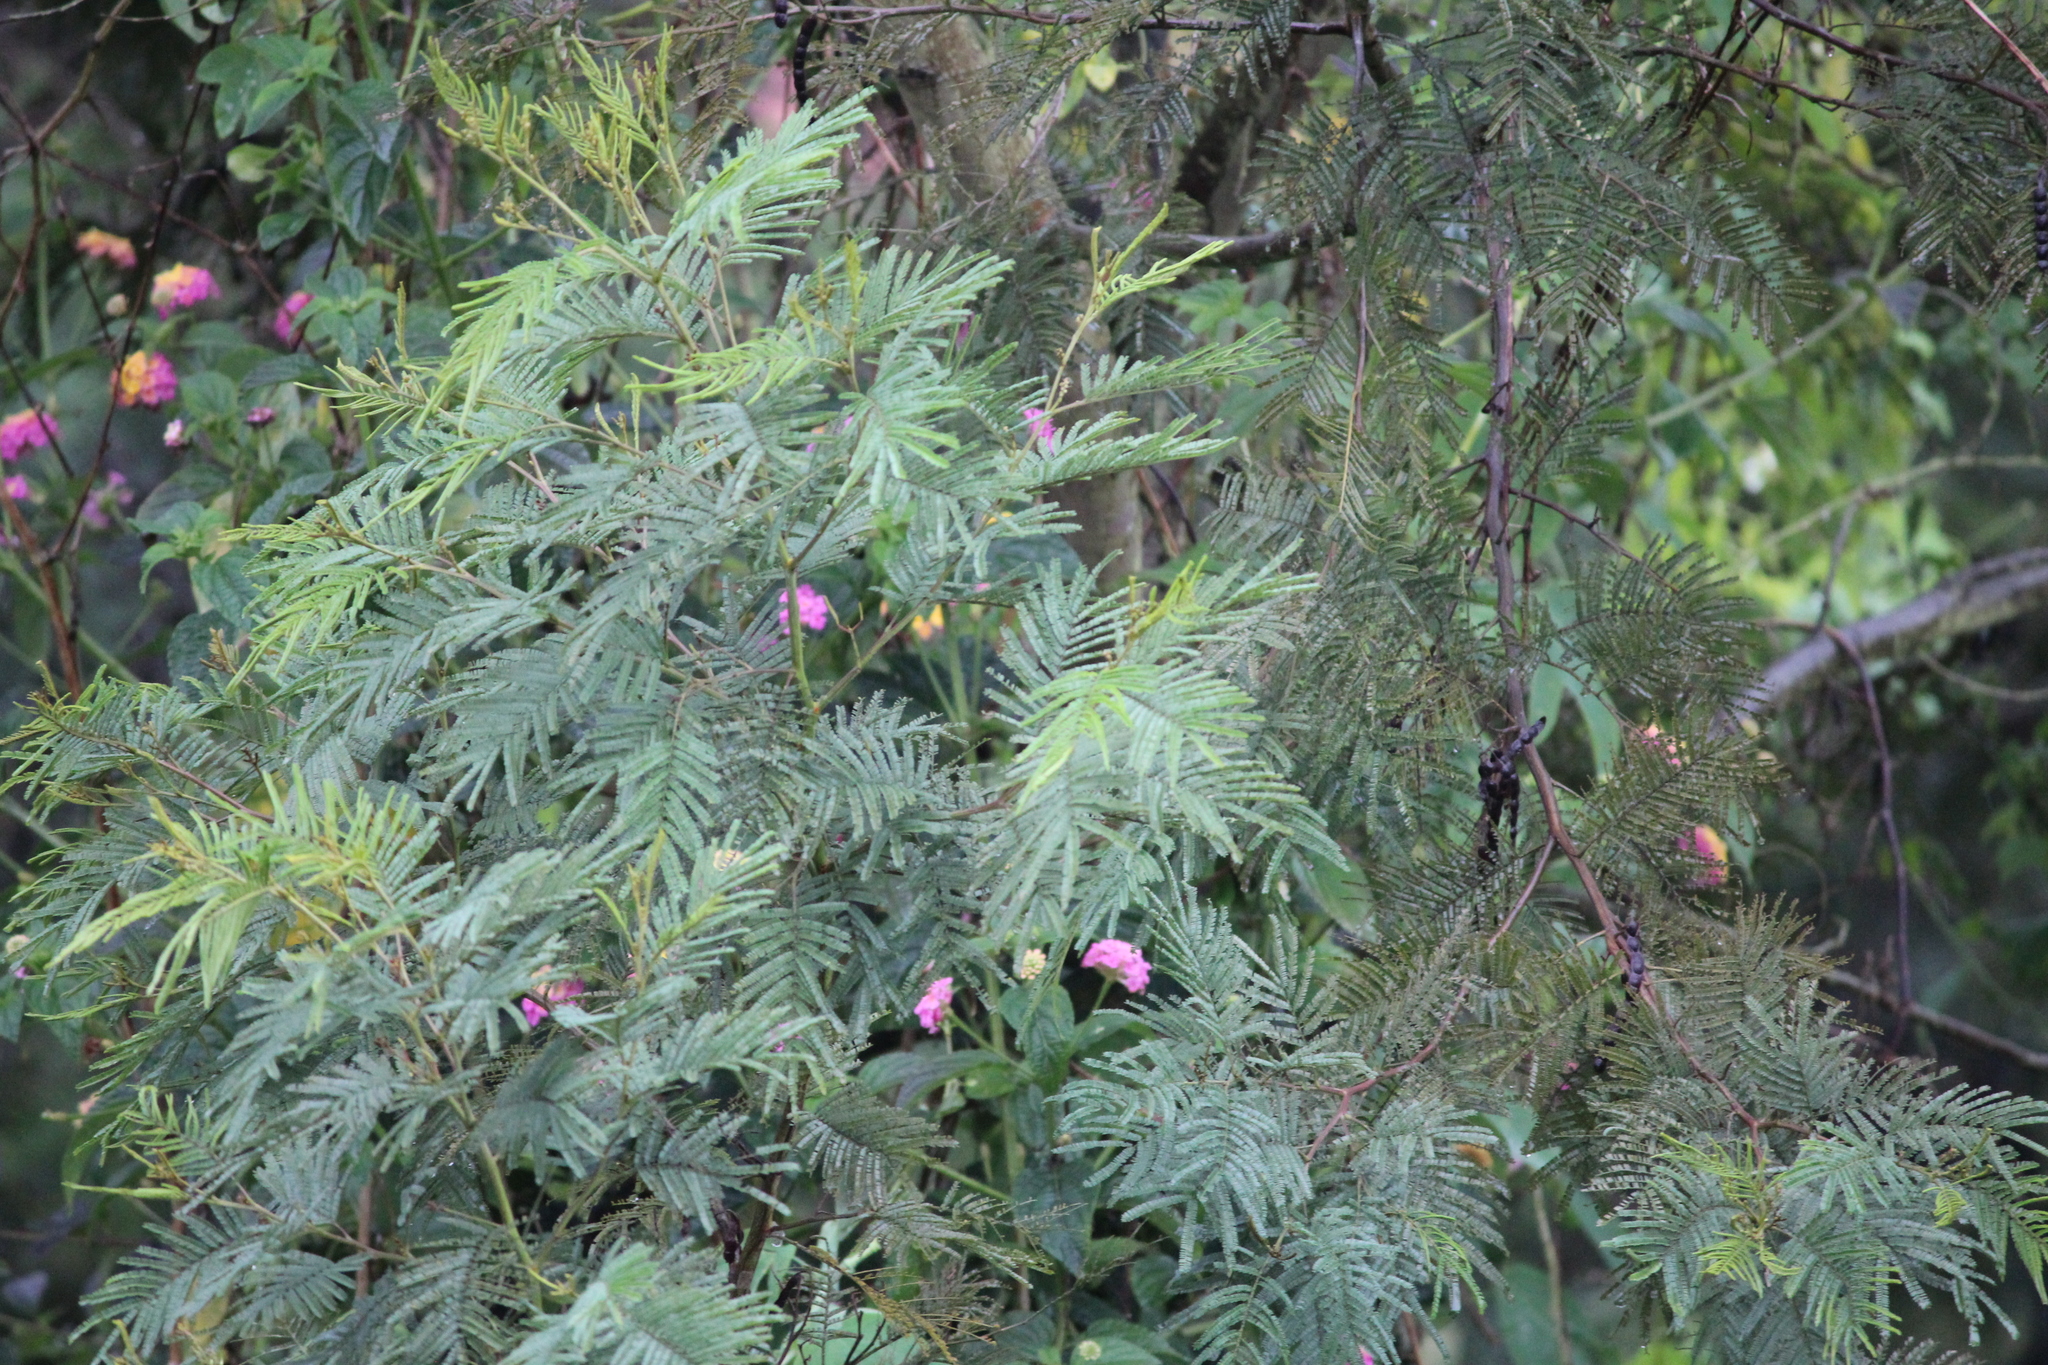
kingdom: Plantae
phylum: Tracheophyta
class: Magnoliopsida
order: Fabales
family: Fabaceae
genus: Acacia
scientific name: Acacia mearnsii
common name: Black wattle
